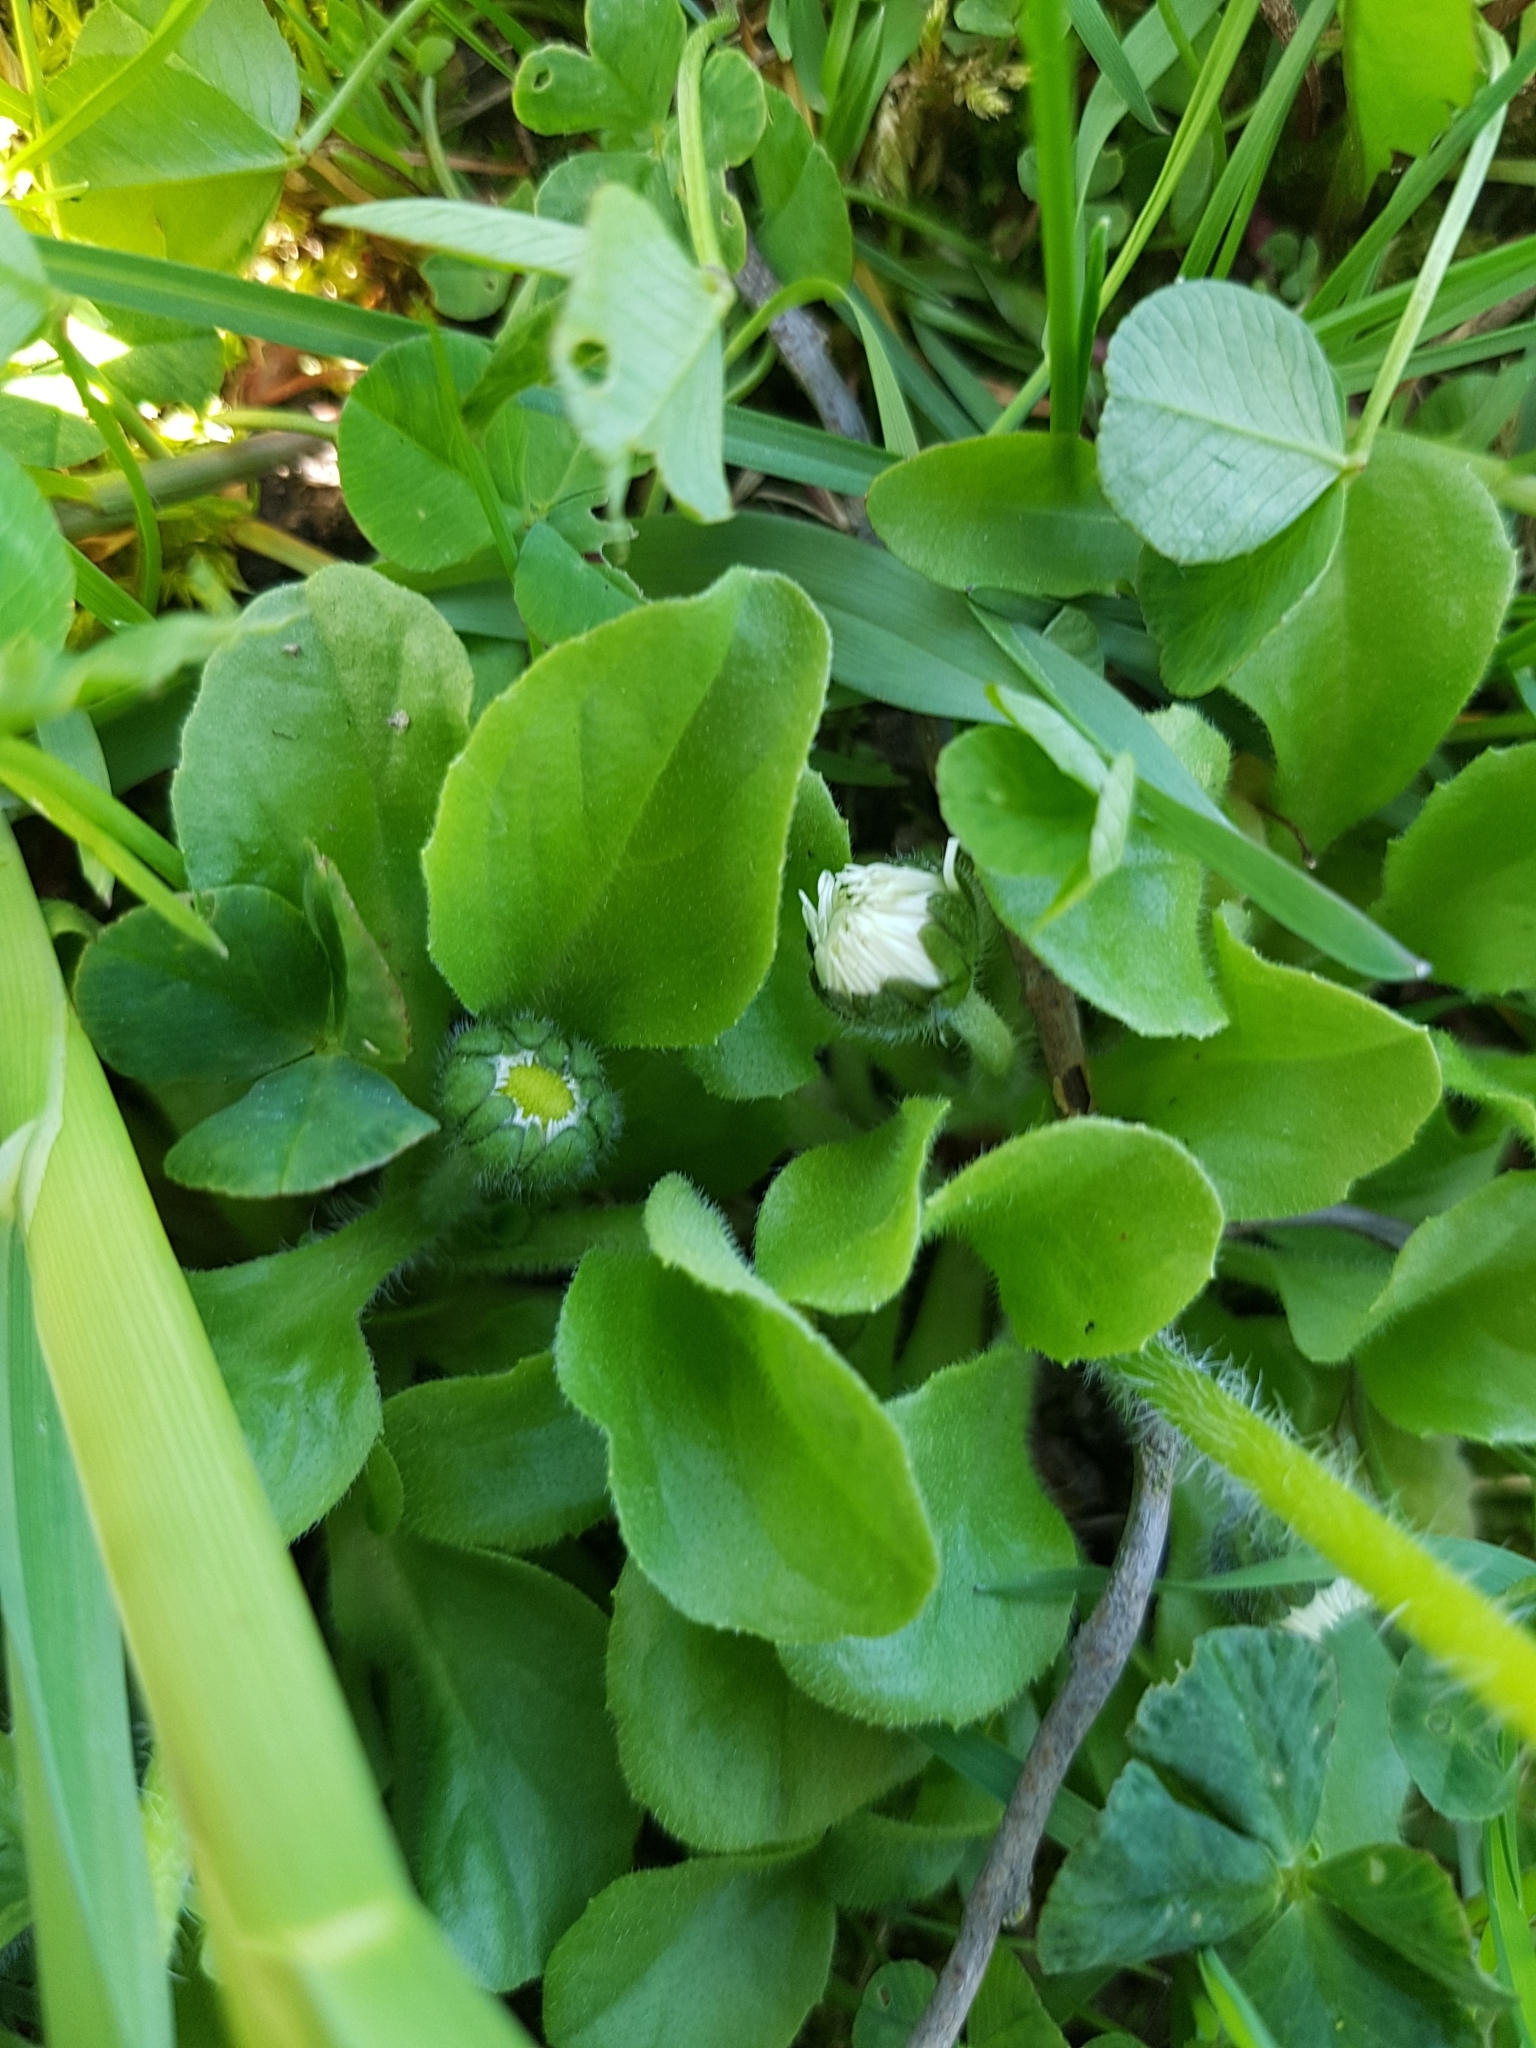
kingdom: Plantae
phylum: Tracheophyta
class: Magnoliopsida
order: Asterales
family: Asteraceae
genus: Bellis
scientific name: Bellis perennis
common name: Lawndaisy
